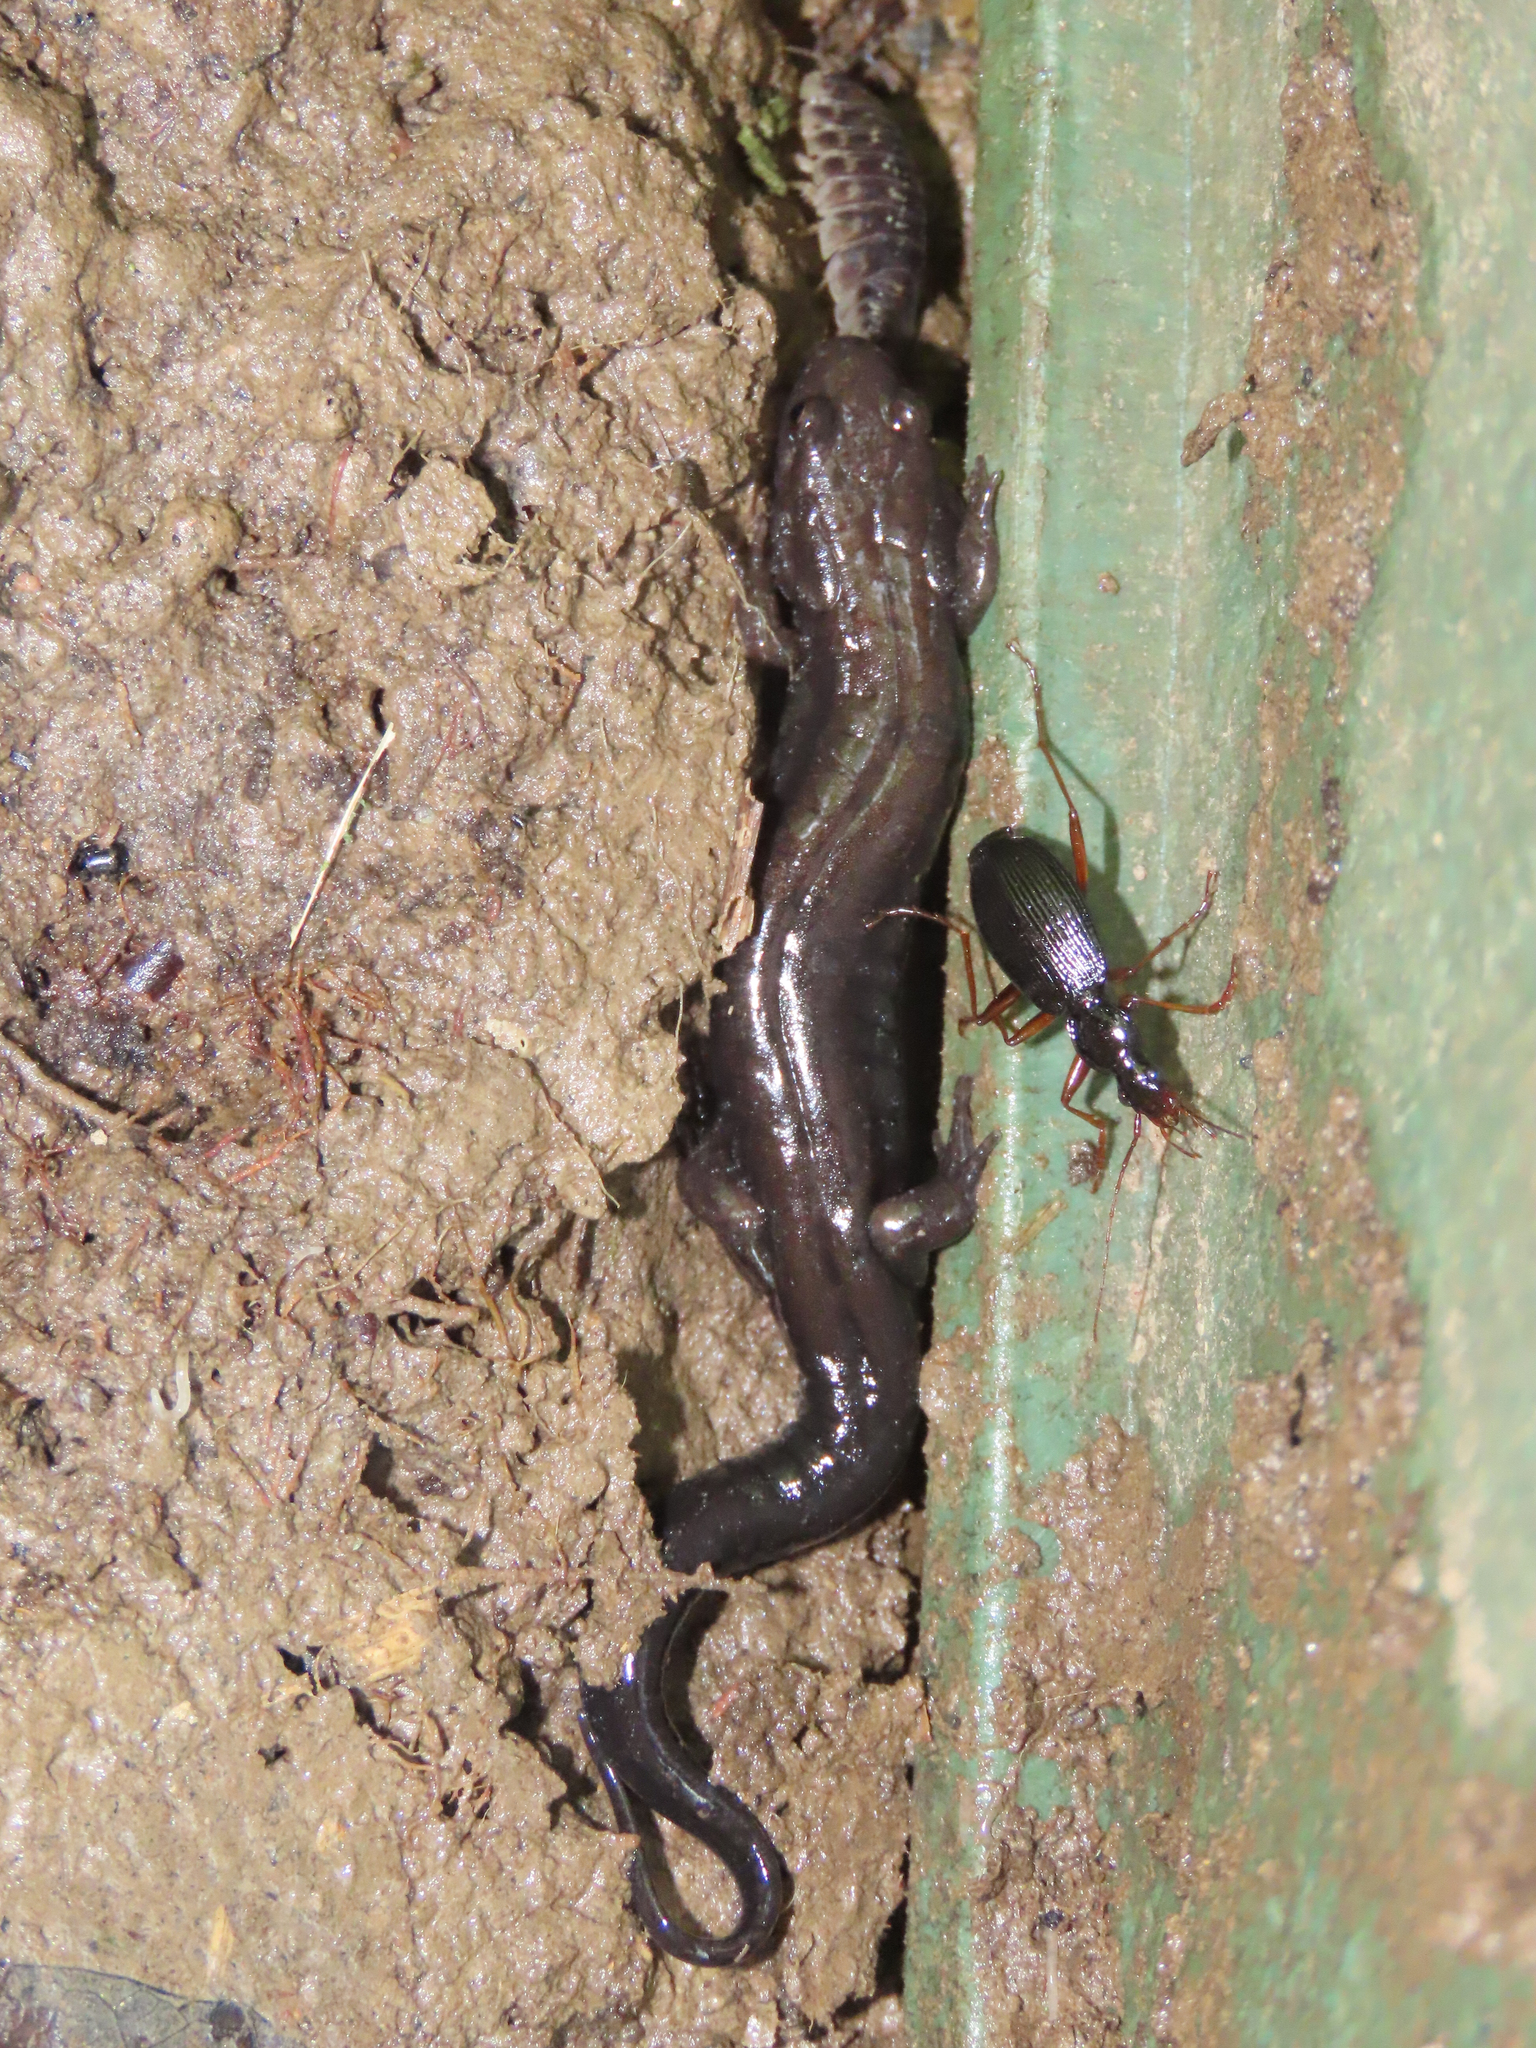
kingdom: Animalia
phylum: Chordata
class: Amphibia
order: Caudata
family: Plethodontidae
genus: Desmognathus
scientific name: Desmognathus ochrophaeus
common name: Allegheny mountain dusky salamander
